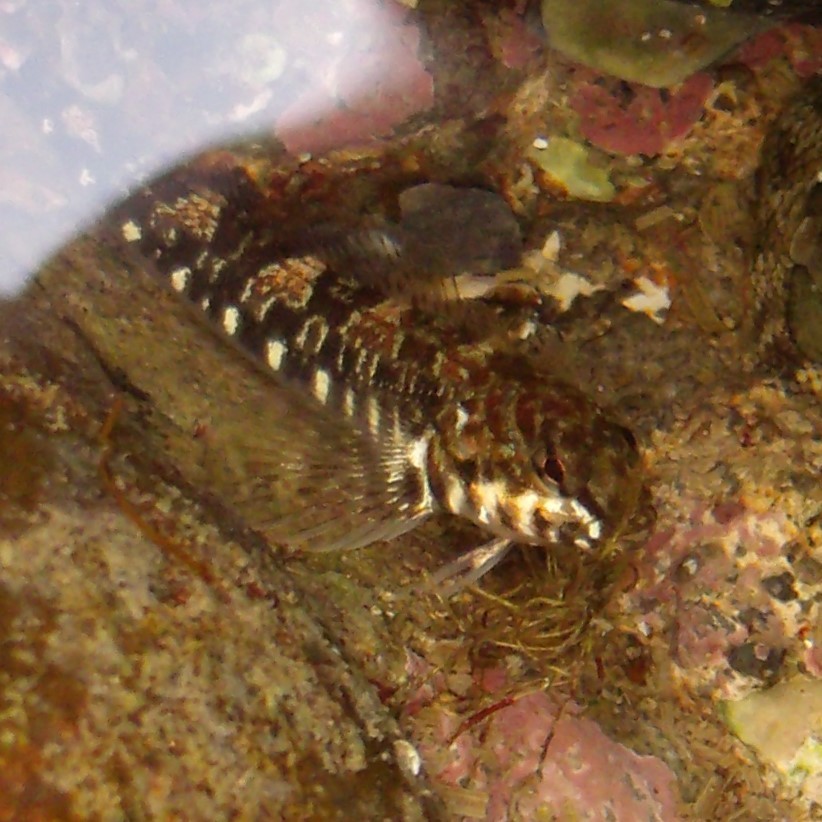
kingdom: Animalia
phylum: Chordata
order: Perciformes
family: Tripterygiidae
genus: Bellapiscis
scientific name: Bellapiscis medius
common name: Twister
